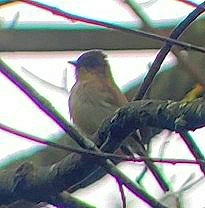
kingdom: Animalia
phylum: Chordata
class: Aves
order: Passeriformes
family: Tyrannidae
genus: Sayornis
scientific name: Sayornis phoebe
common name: Eastern phoebe
